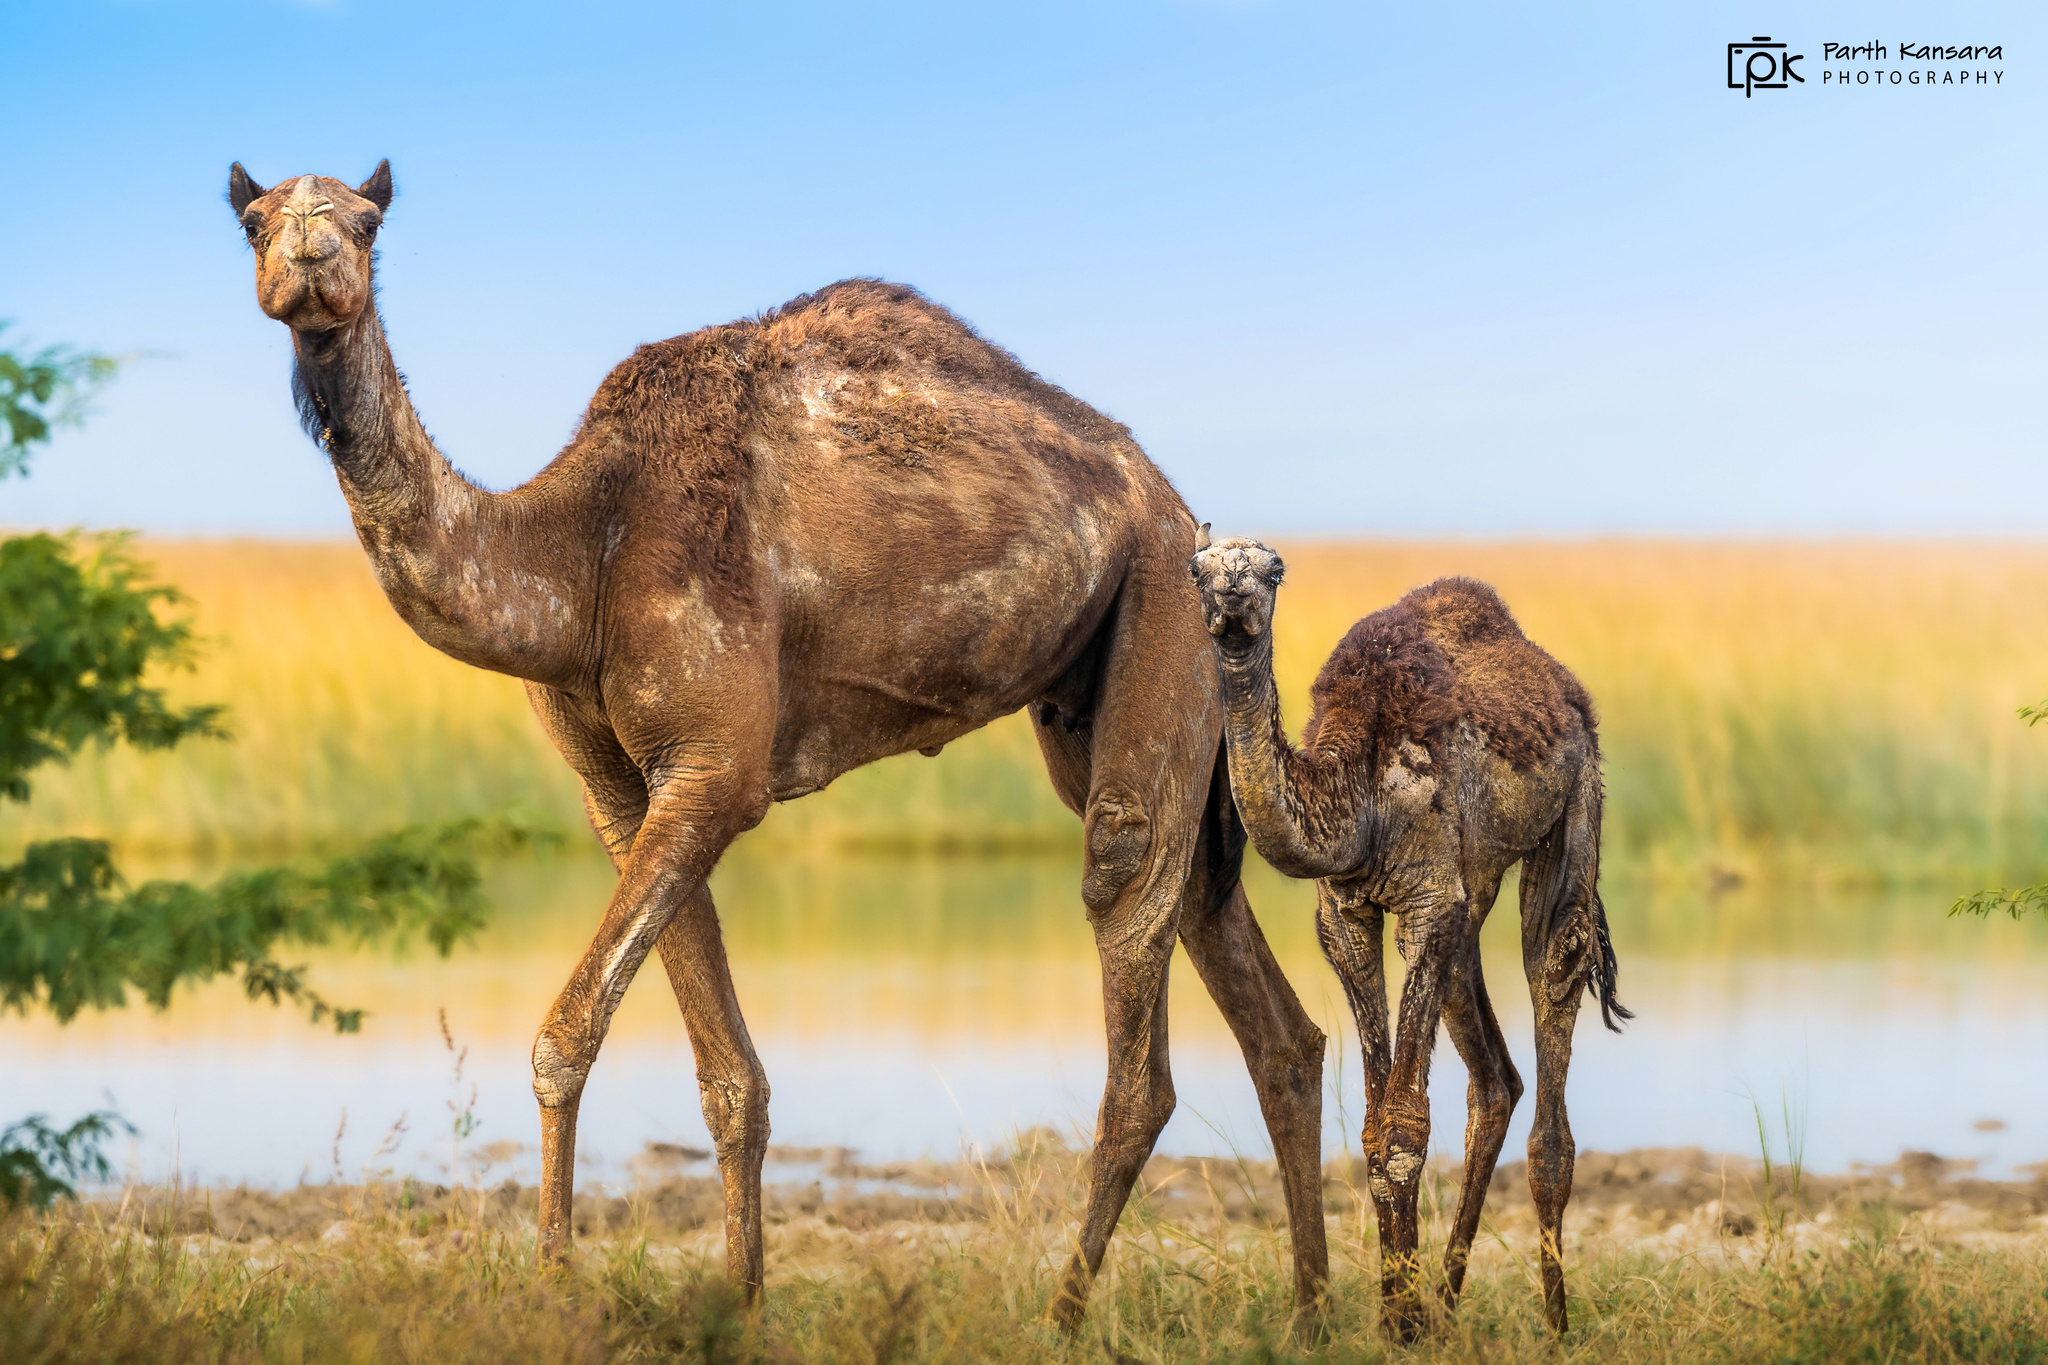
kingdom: Animalia
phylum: Chordata
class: Mammalia
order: Artiodactyla
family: Camelidae
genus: Camelus
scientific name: Camelus dromedarius
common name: One-humped camel
